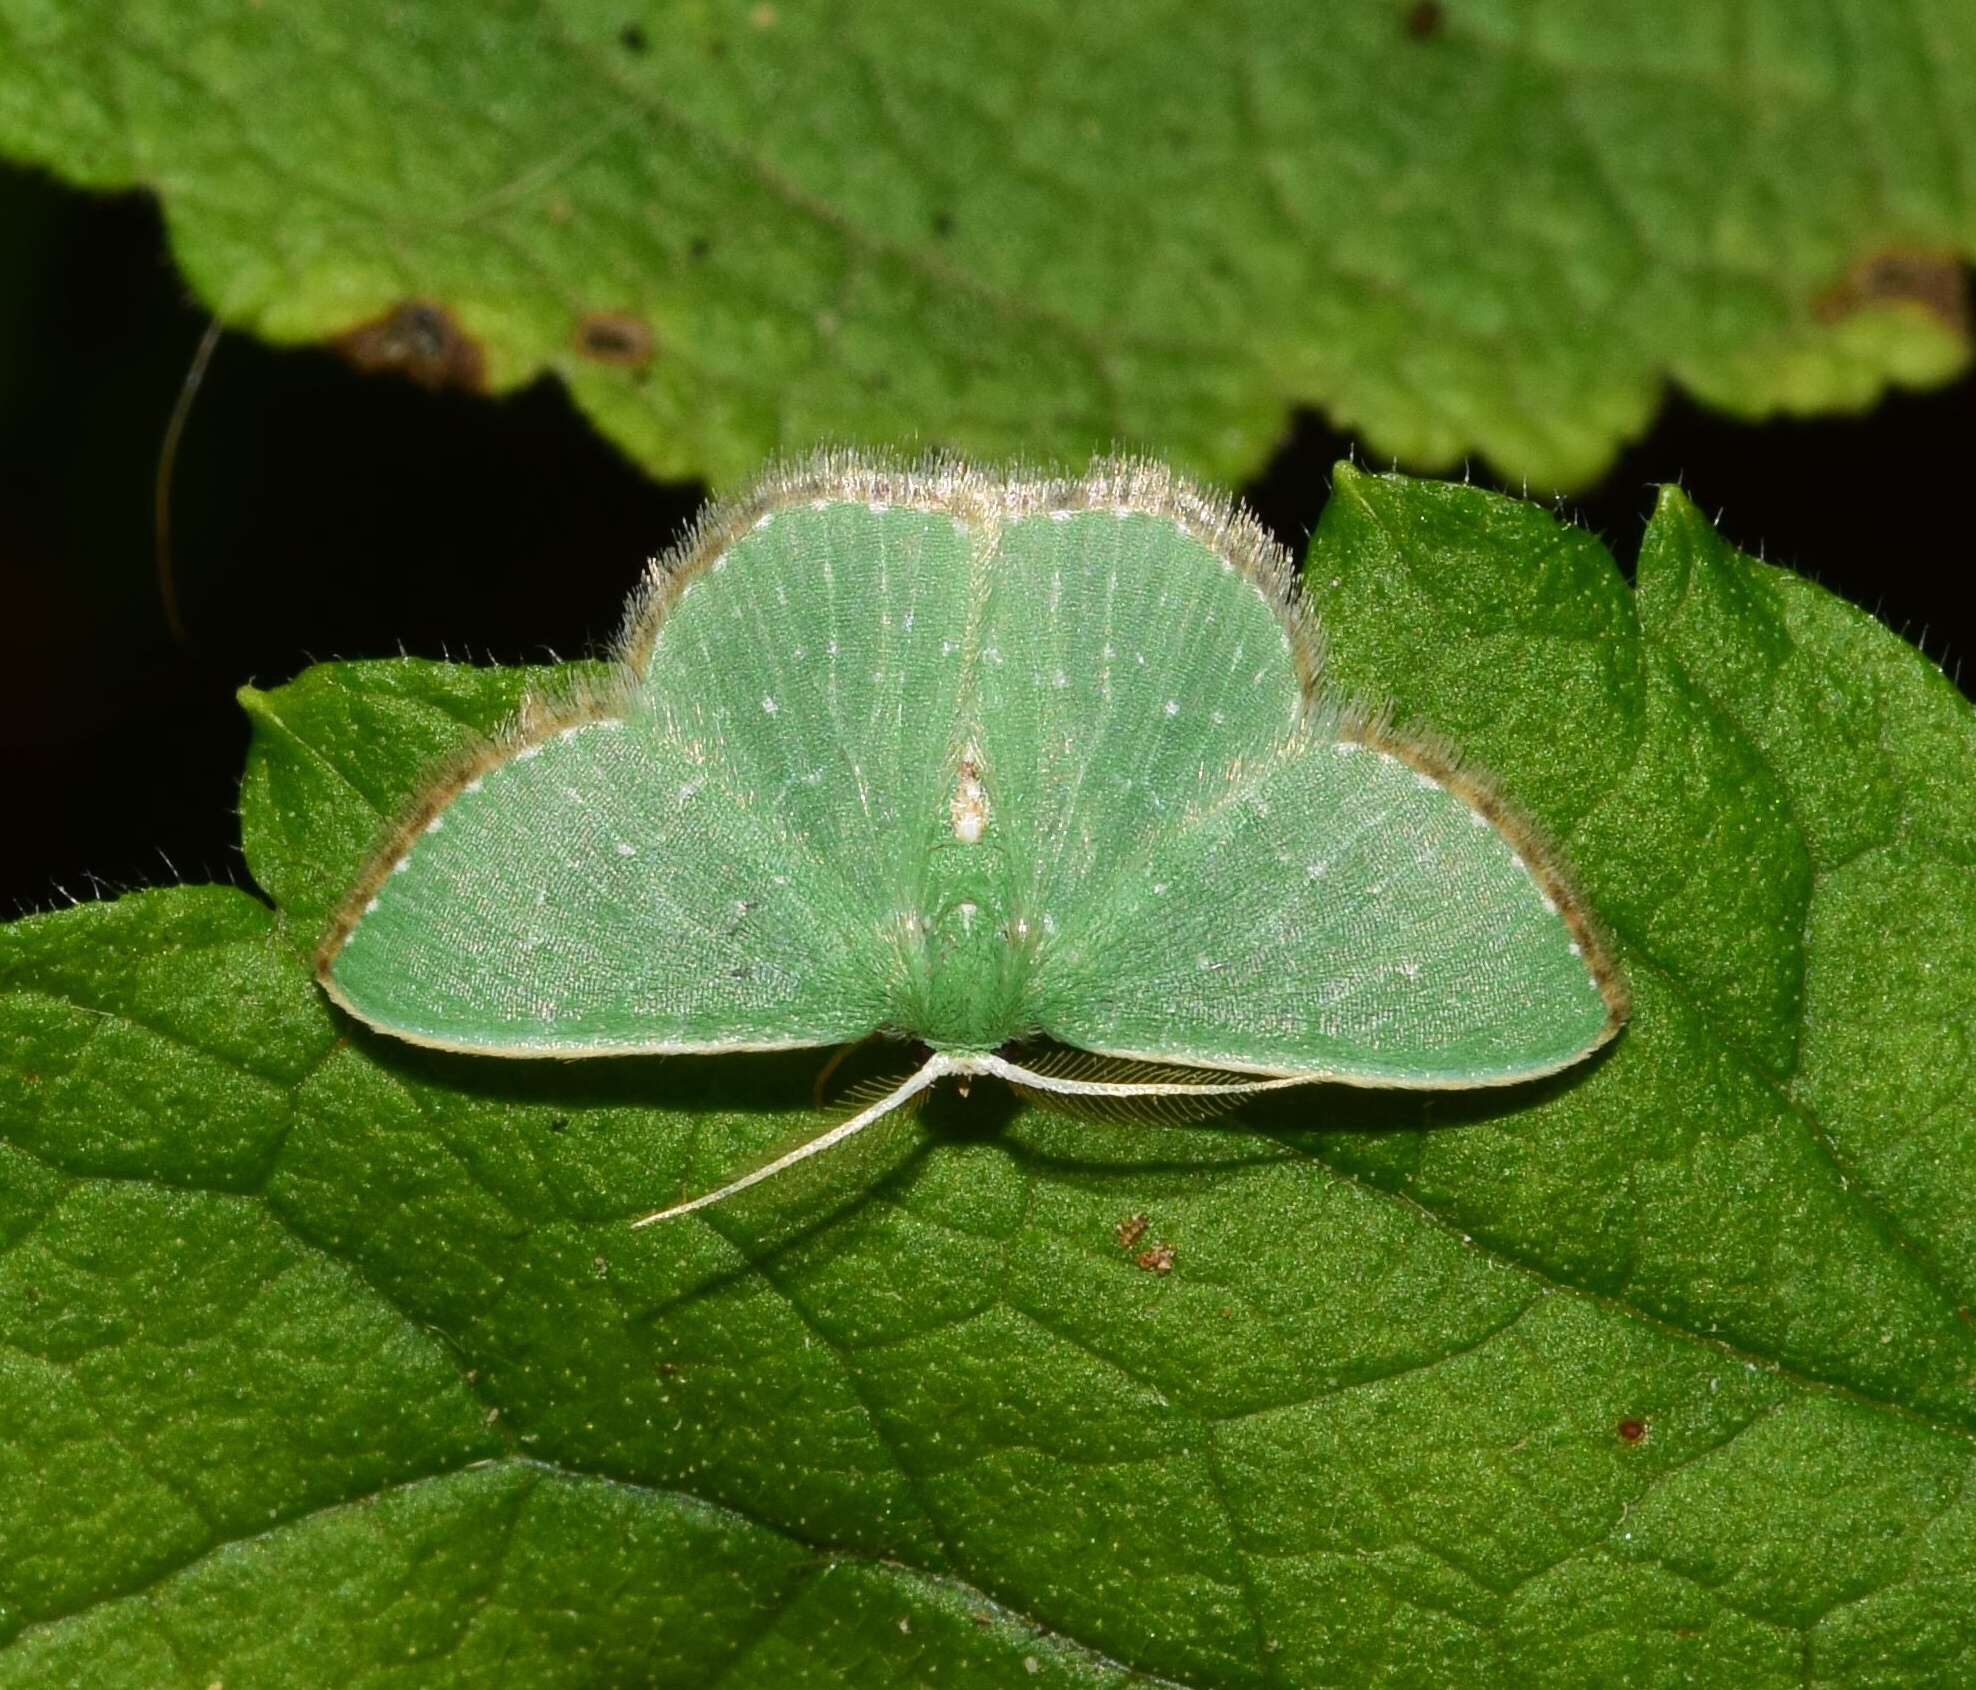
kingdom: Animalia
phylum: Arthropoda
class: Insecta
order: Lepidoptera
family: Geometridae
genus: Omphacodes
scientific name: Omphacodes punctilineata
